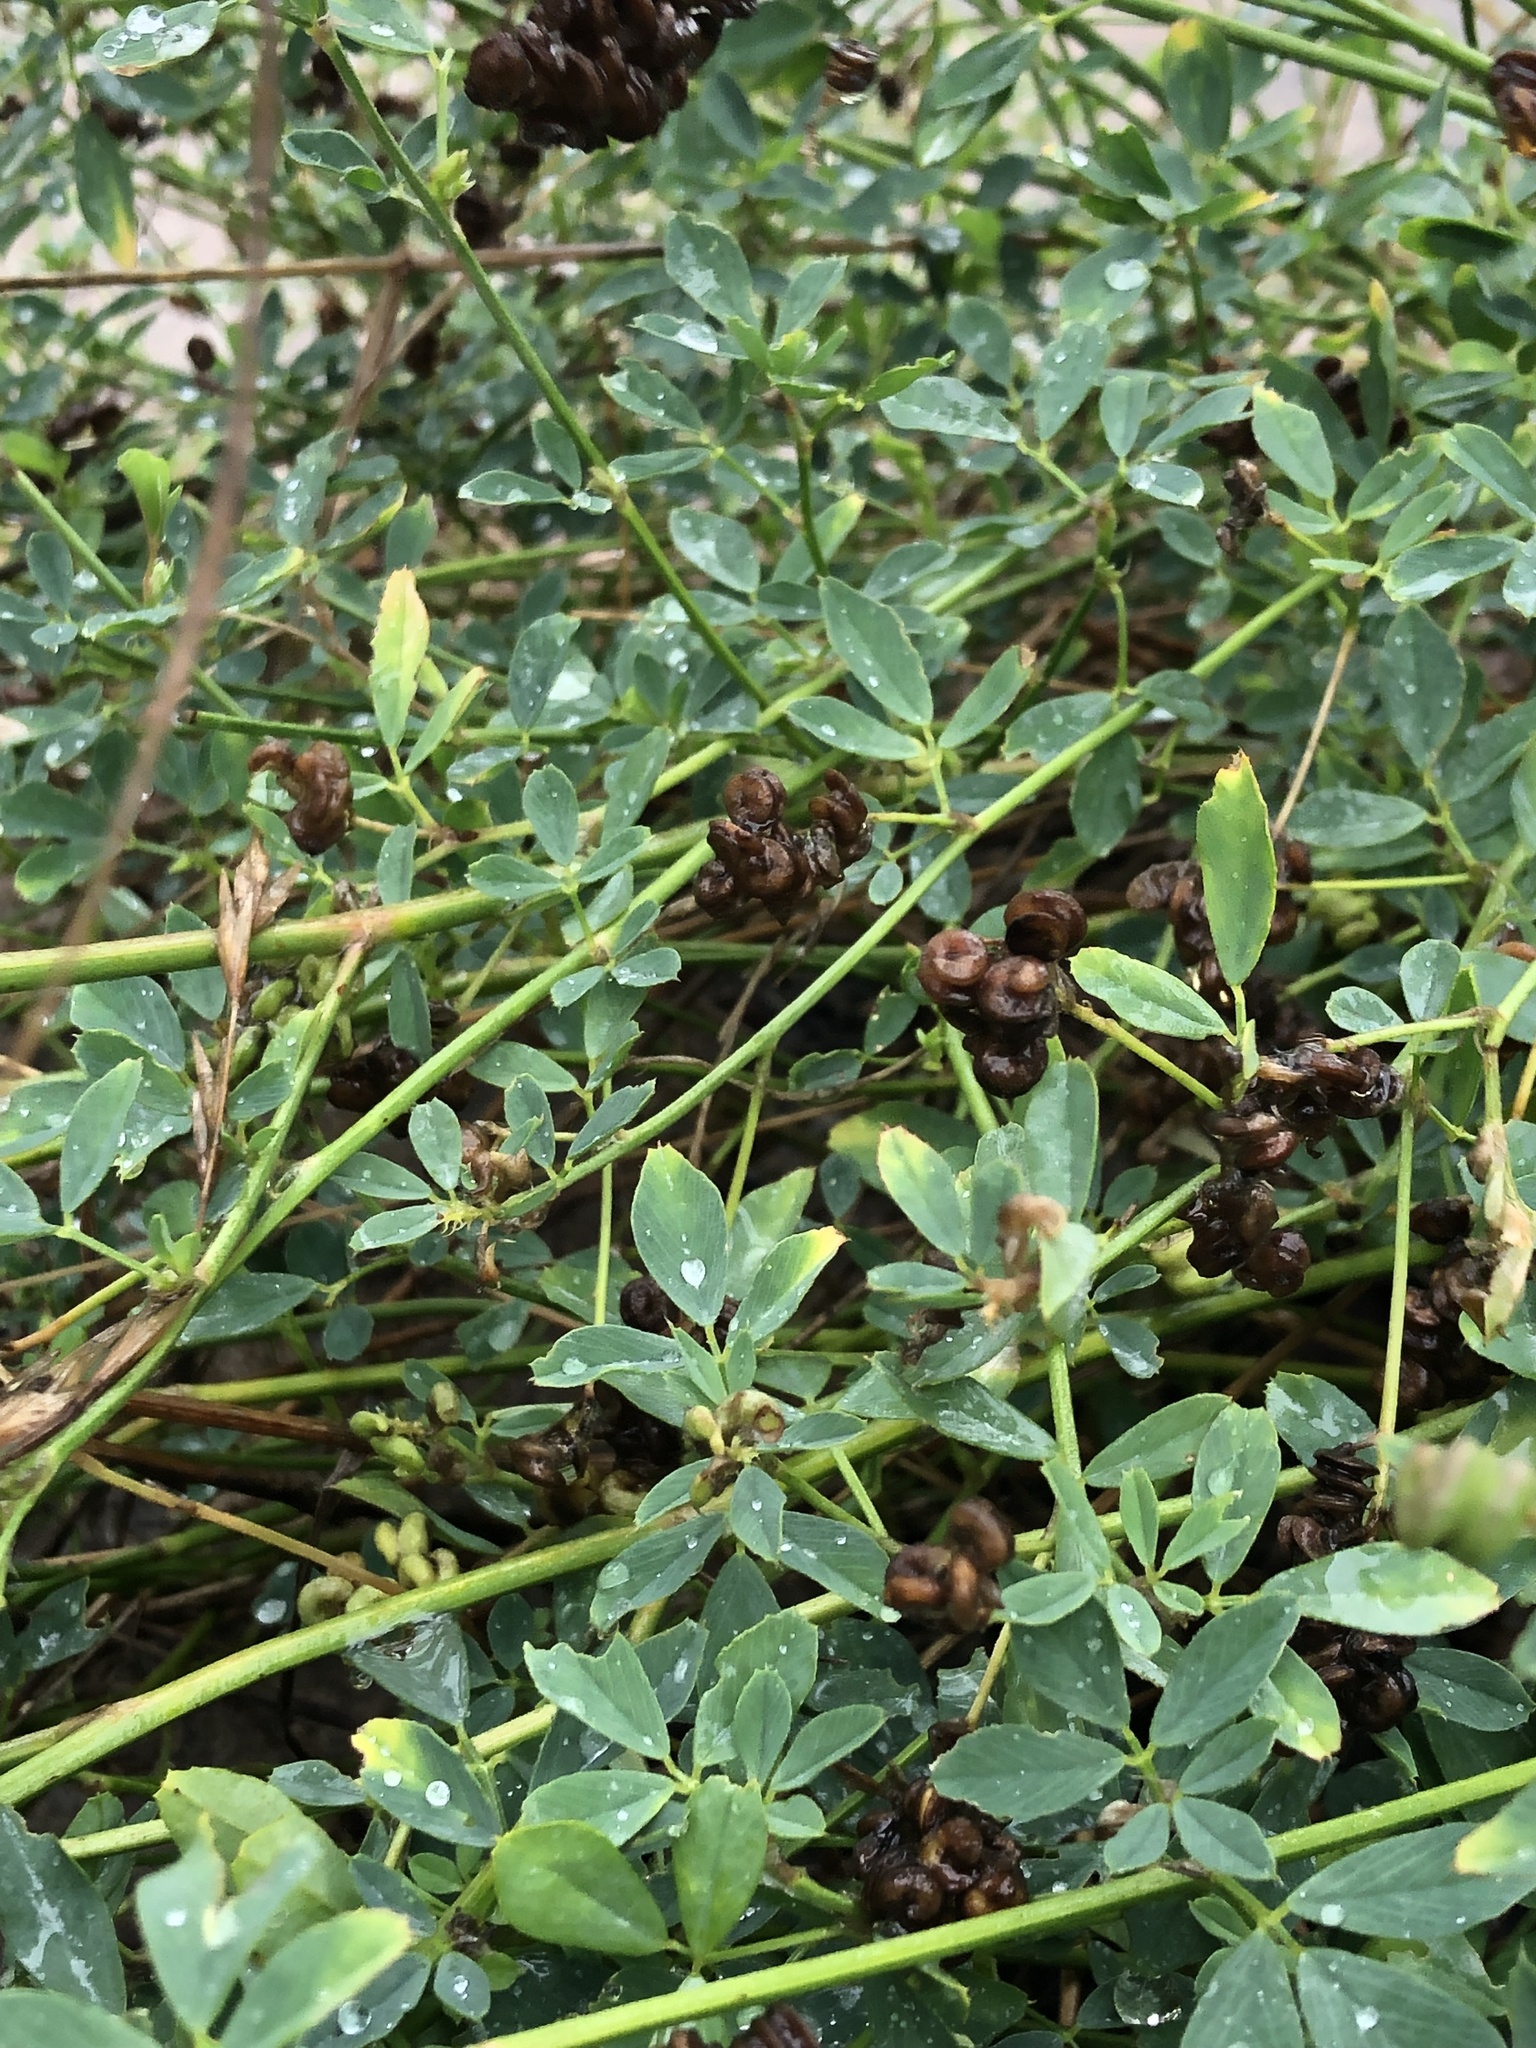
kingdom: Plantae
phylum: Tracheophyta
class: Magnoliopsida
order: Fabales
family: Fabaceae
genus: Medicago
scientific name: Medicago sativa
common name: Alfalfa
